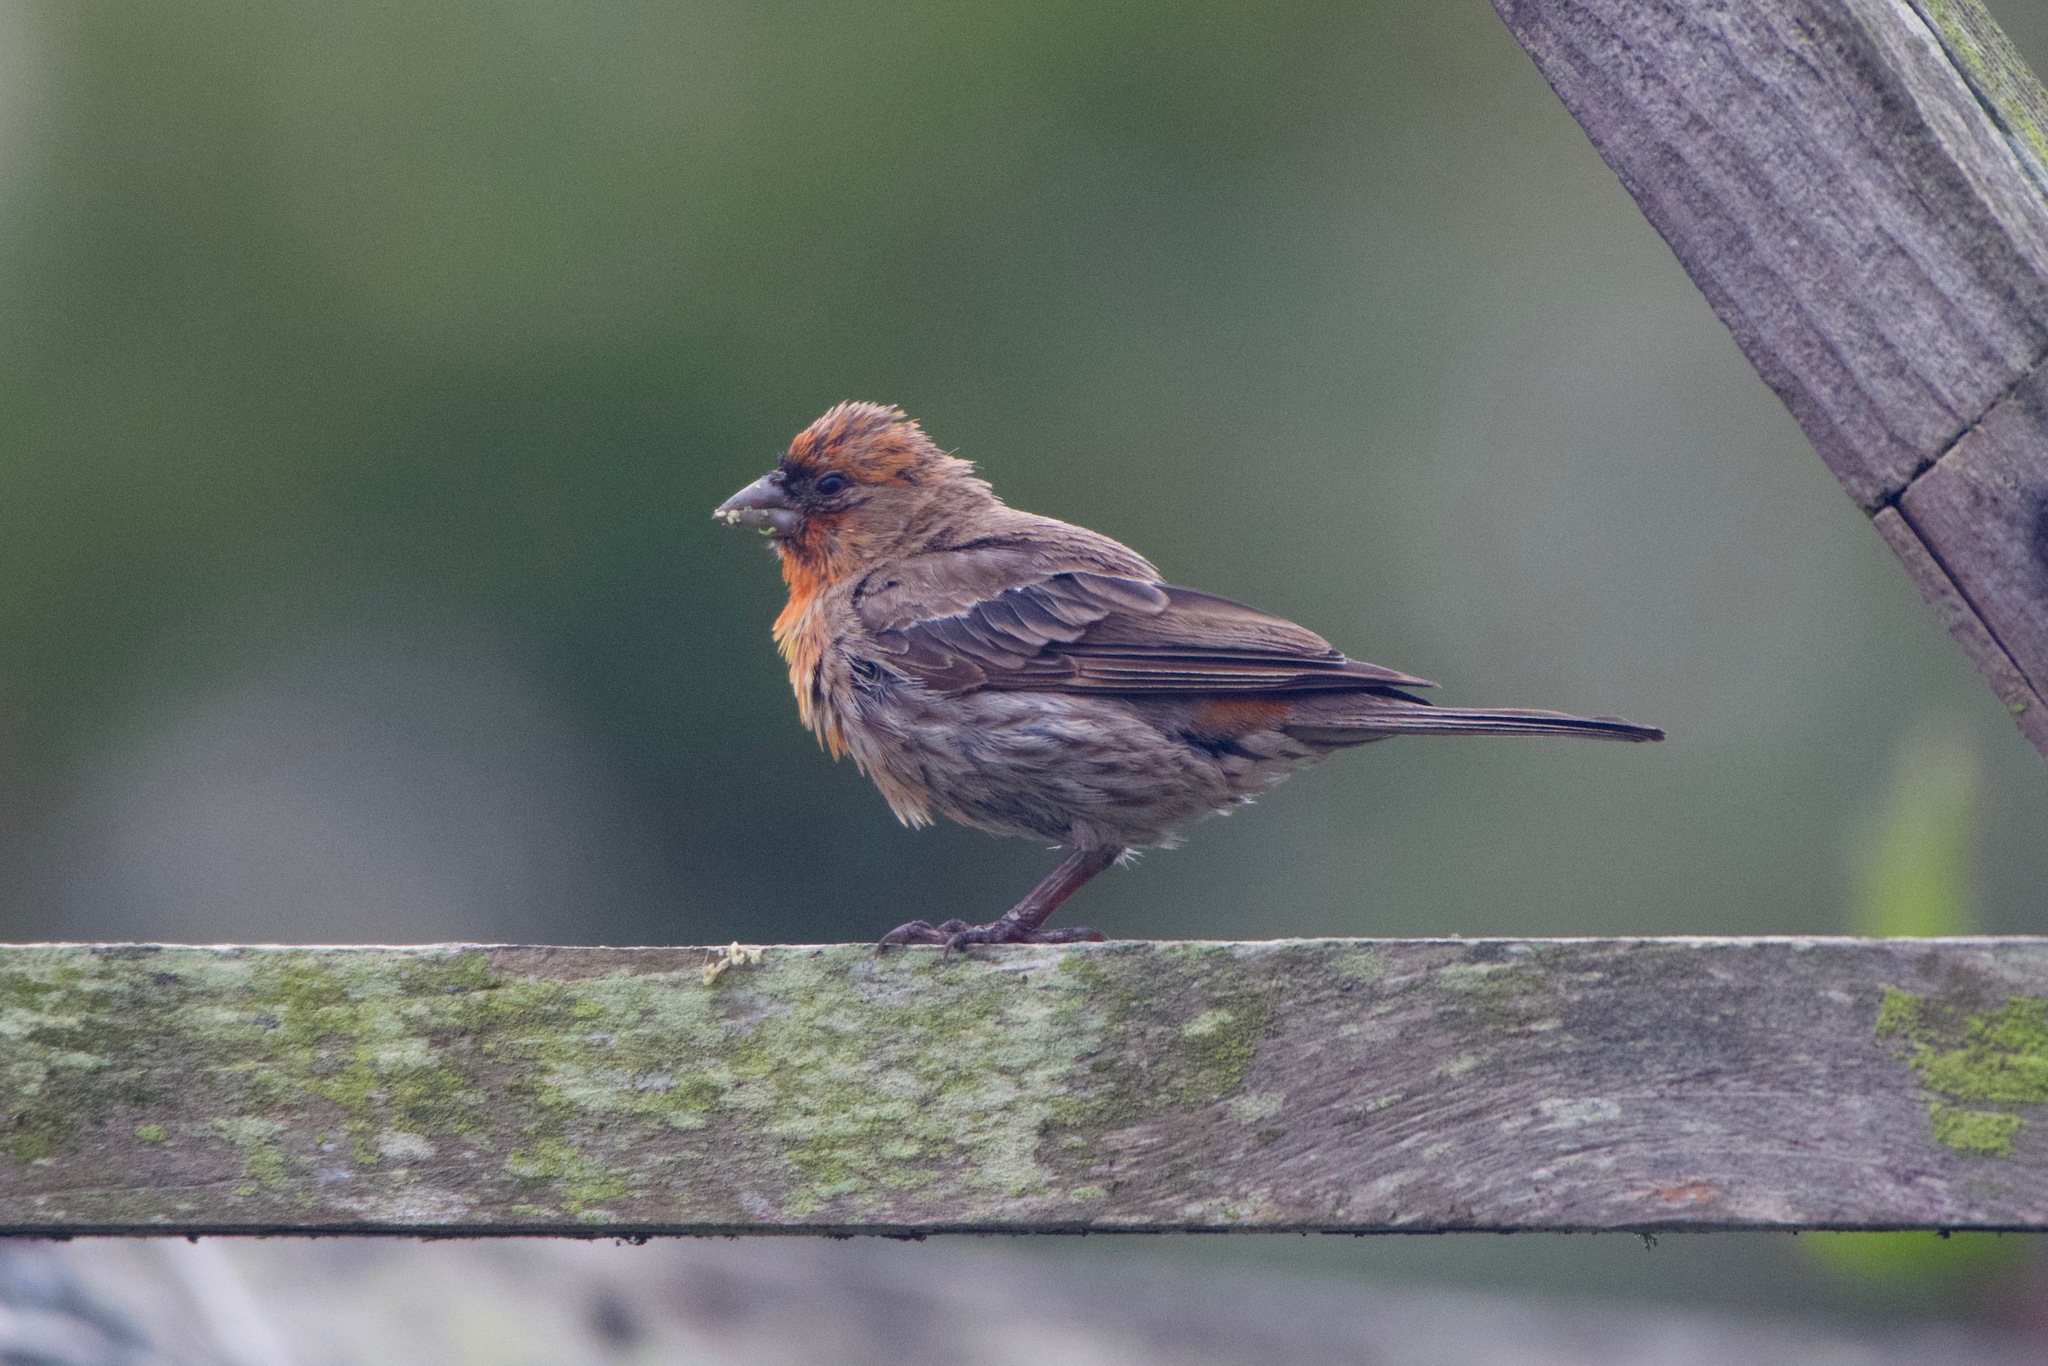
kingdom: Animalia
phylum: Chordata
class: Aves
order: Passeriformes
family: Fringillidae
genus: Haemorhous
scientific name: Haemorhous mexicanus
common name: House finch
